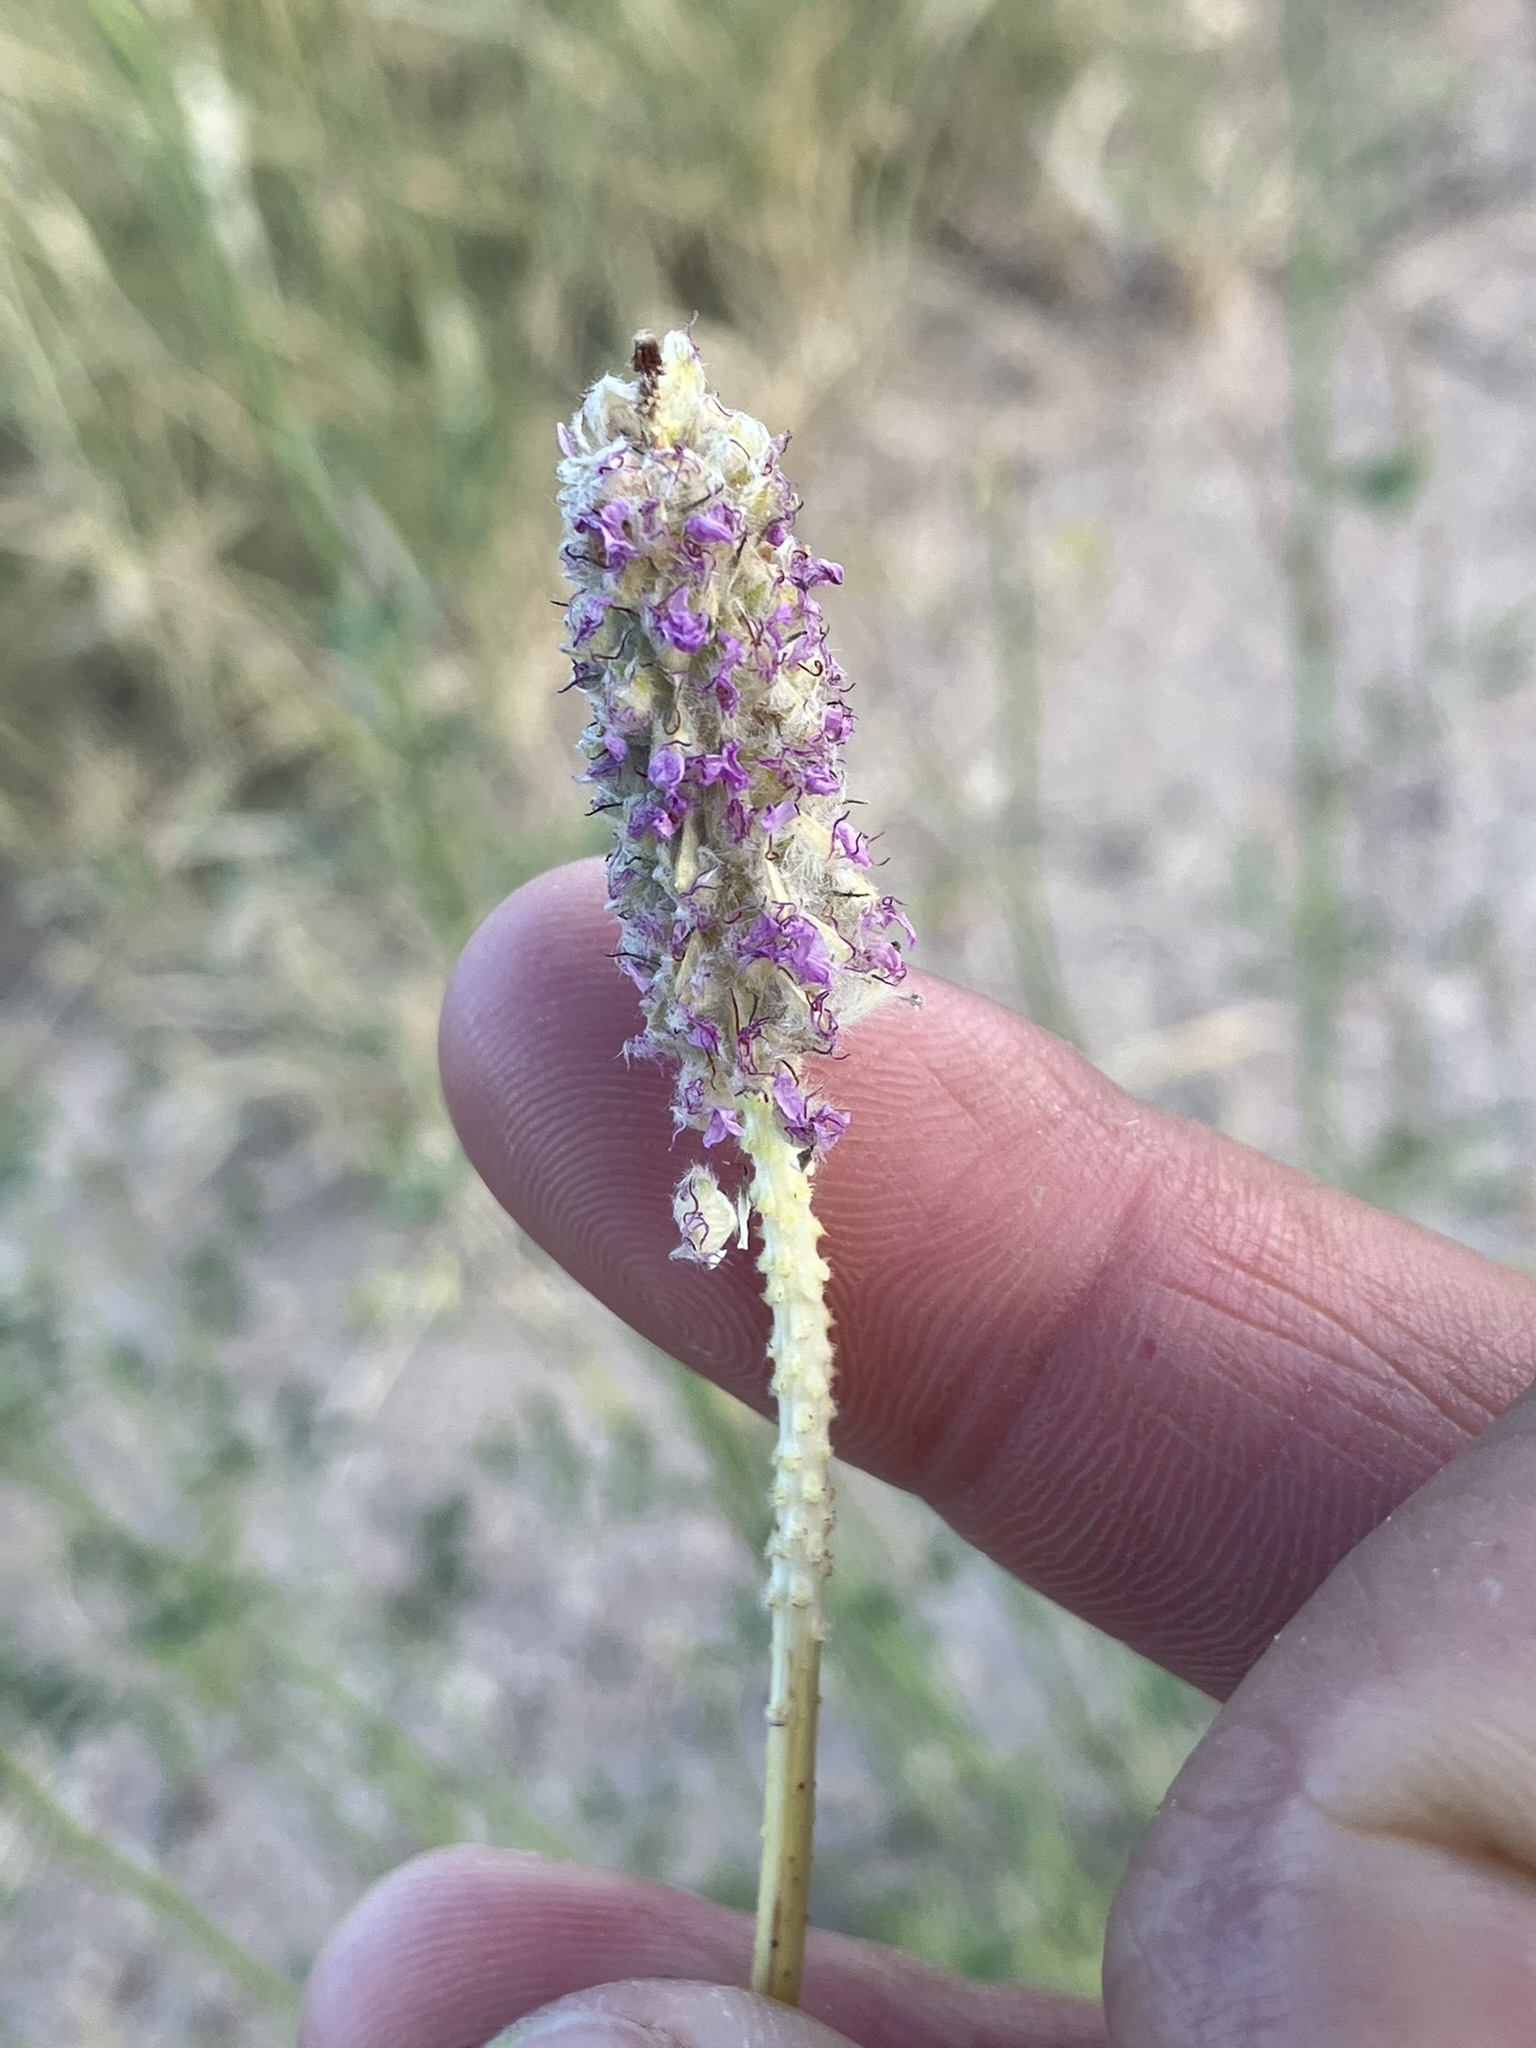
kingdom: Plantae
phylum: Tracheophyta
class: Magnoliopsida
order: Fabales
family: Fabaceae
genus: Dalea
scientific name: Dalea searlsiae
